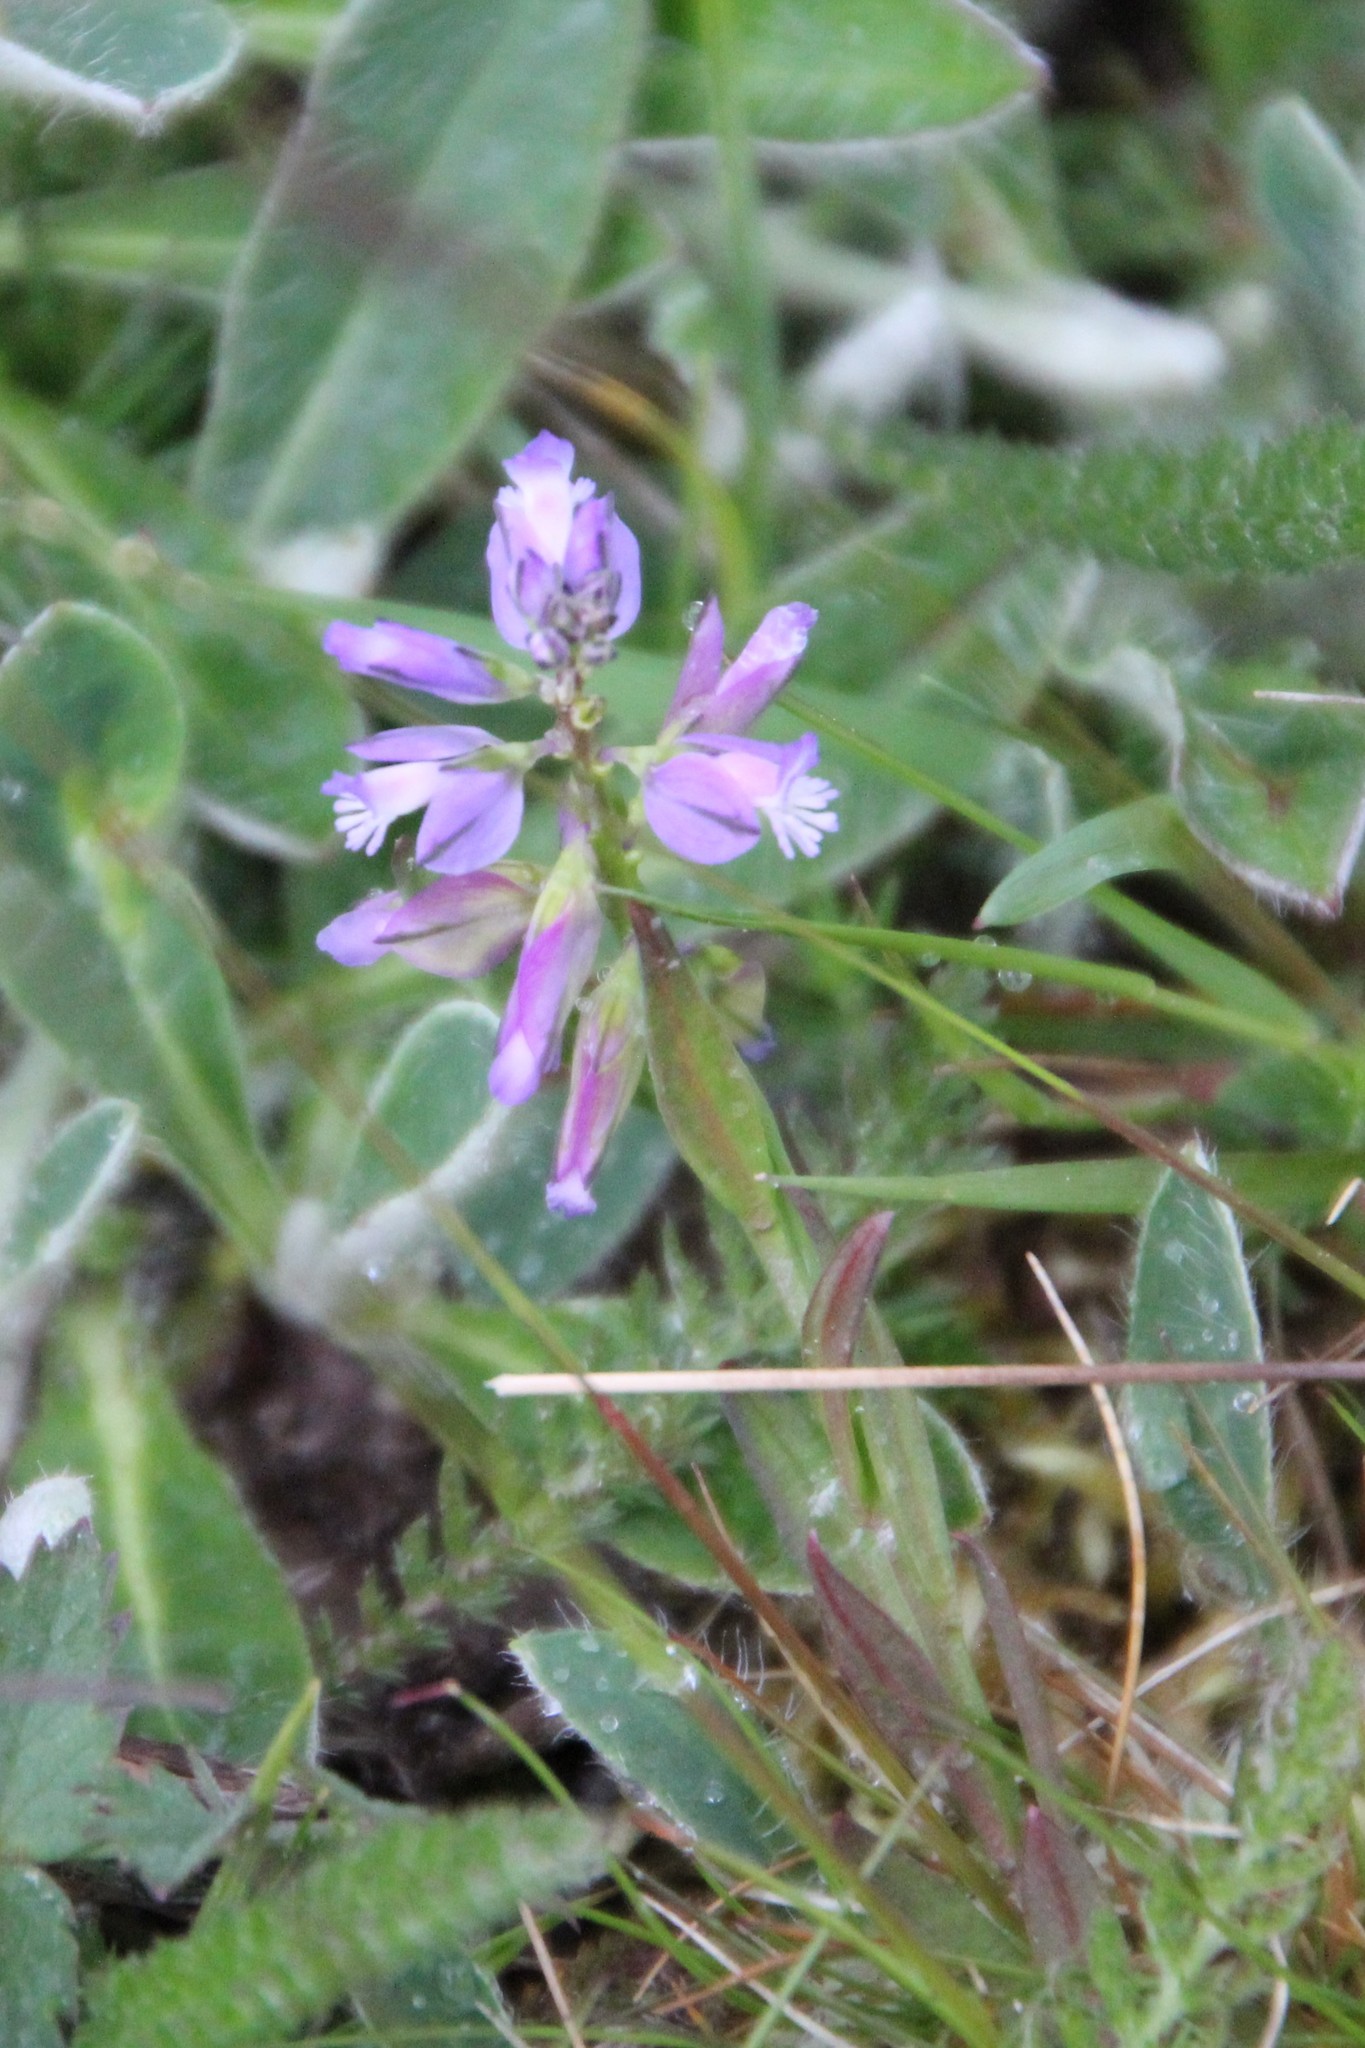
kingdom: Plantae
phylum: Tracheophyta
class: Magnoliopsida
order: Fabales
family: Polygalaceae
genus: Polygala
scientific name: Polygala vulgaris
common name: Common milkwort
